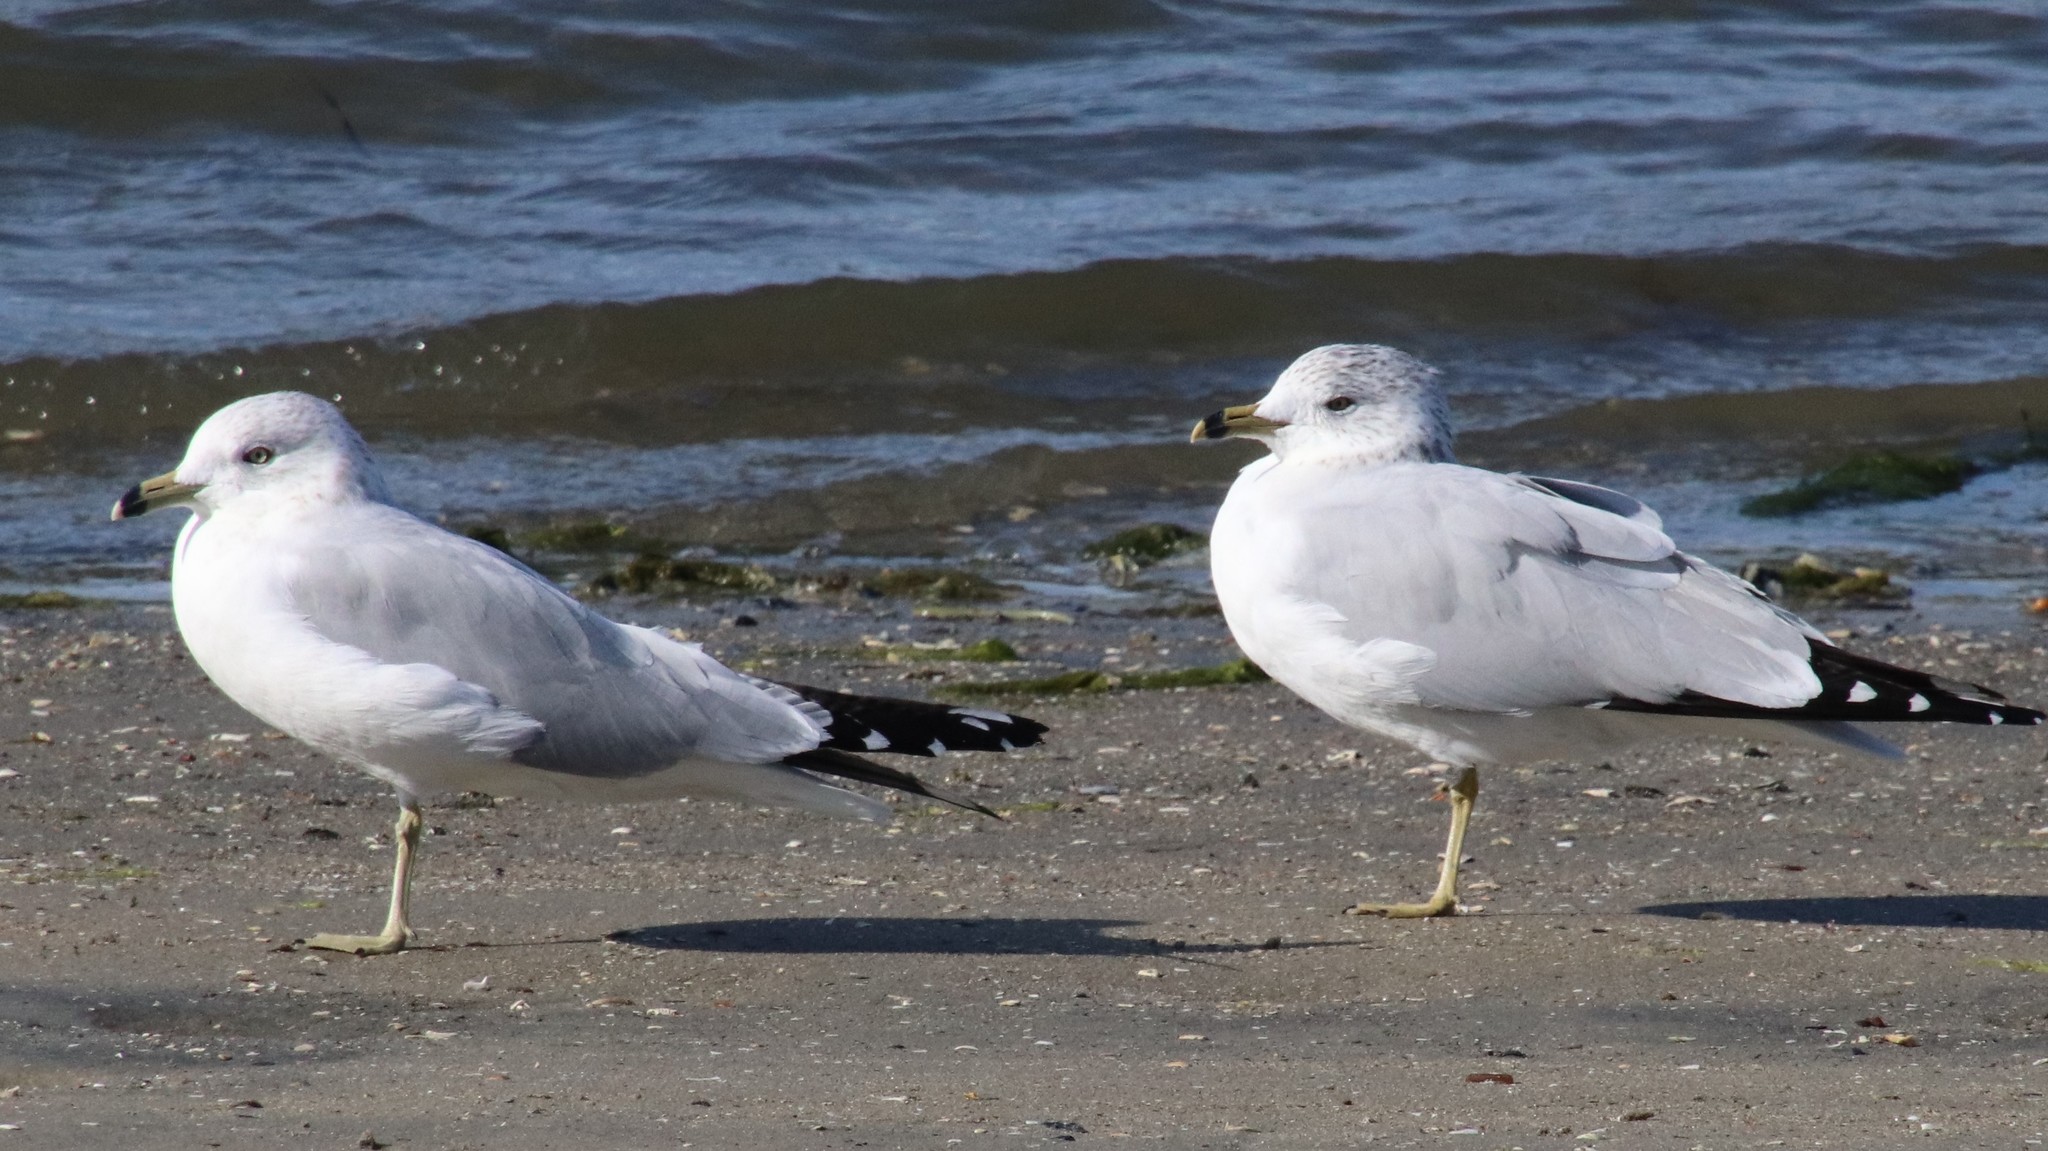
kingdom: Animalia
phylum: Chordata
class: Aves
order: Charadriiformes
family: Laridae
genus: Larus
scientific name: Larus delawarensis
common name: Ring-billed gull
